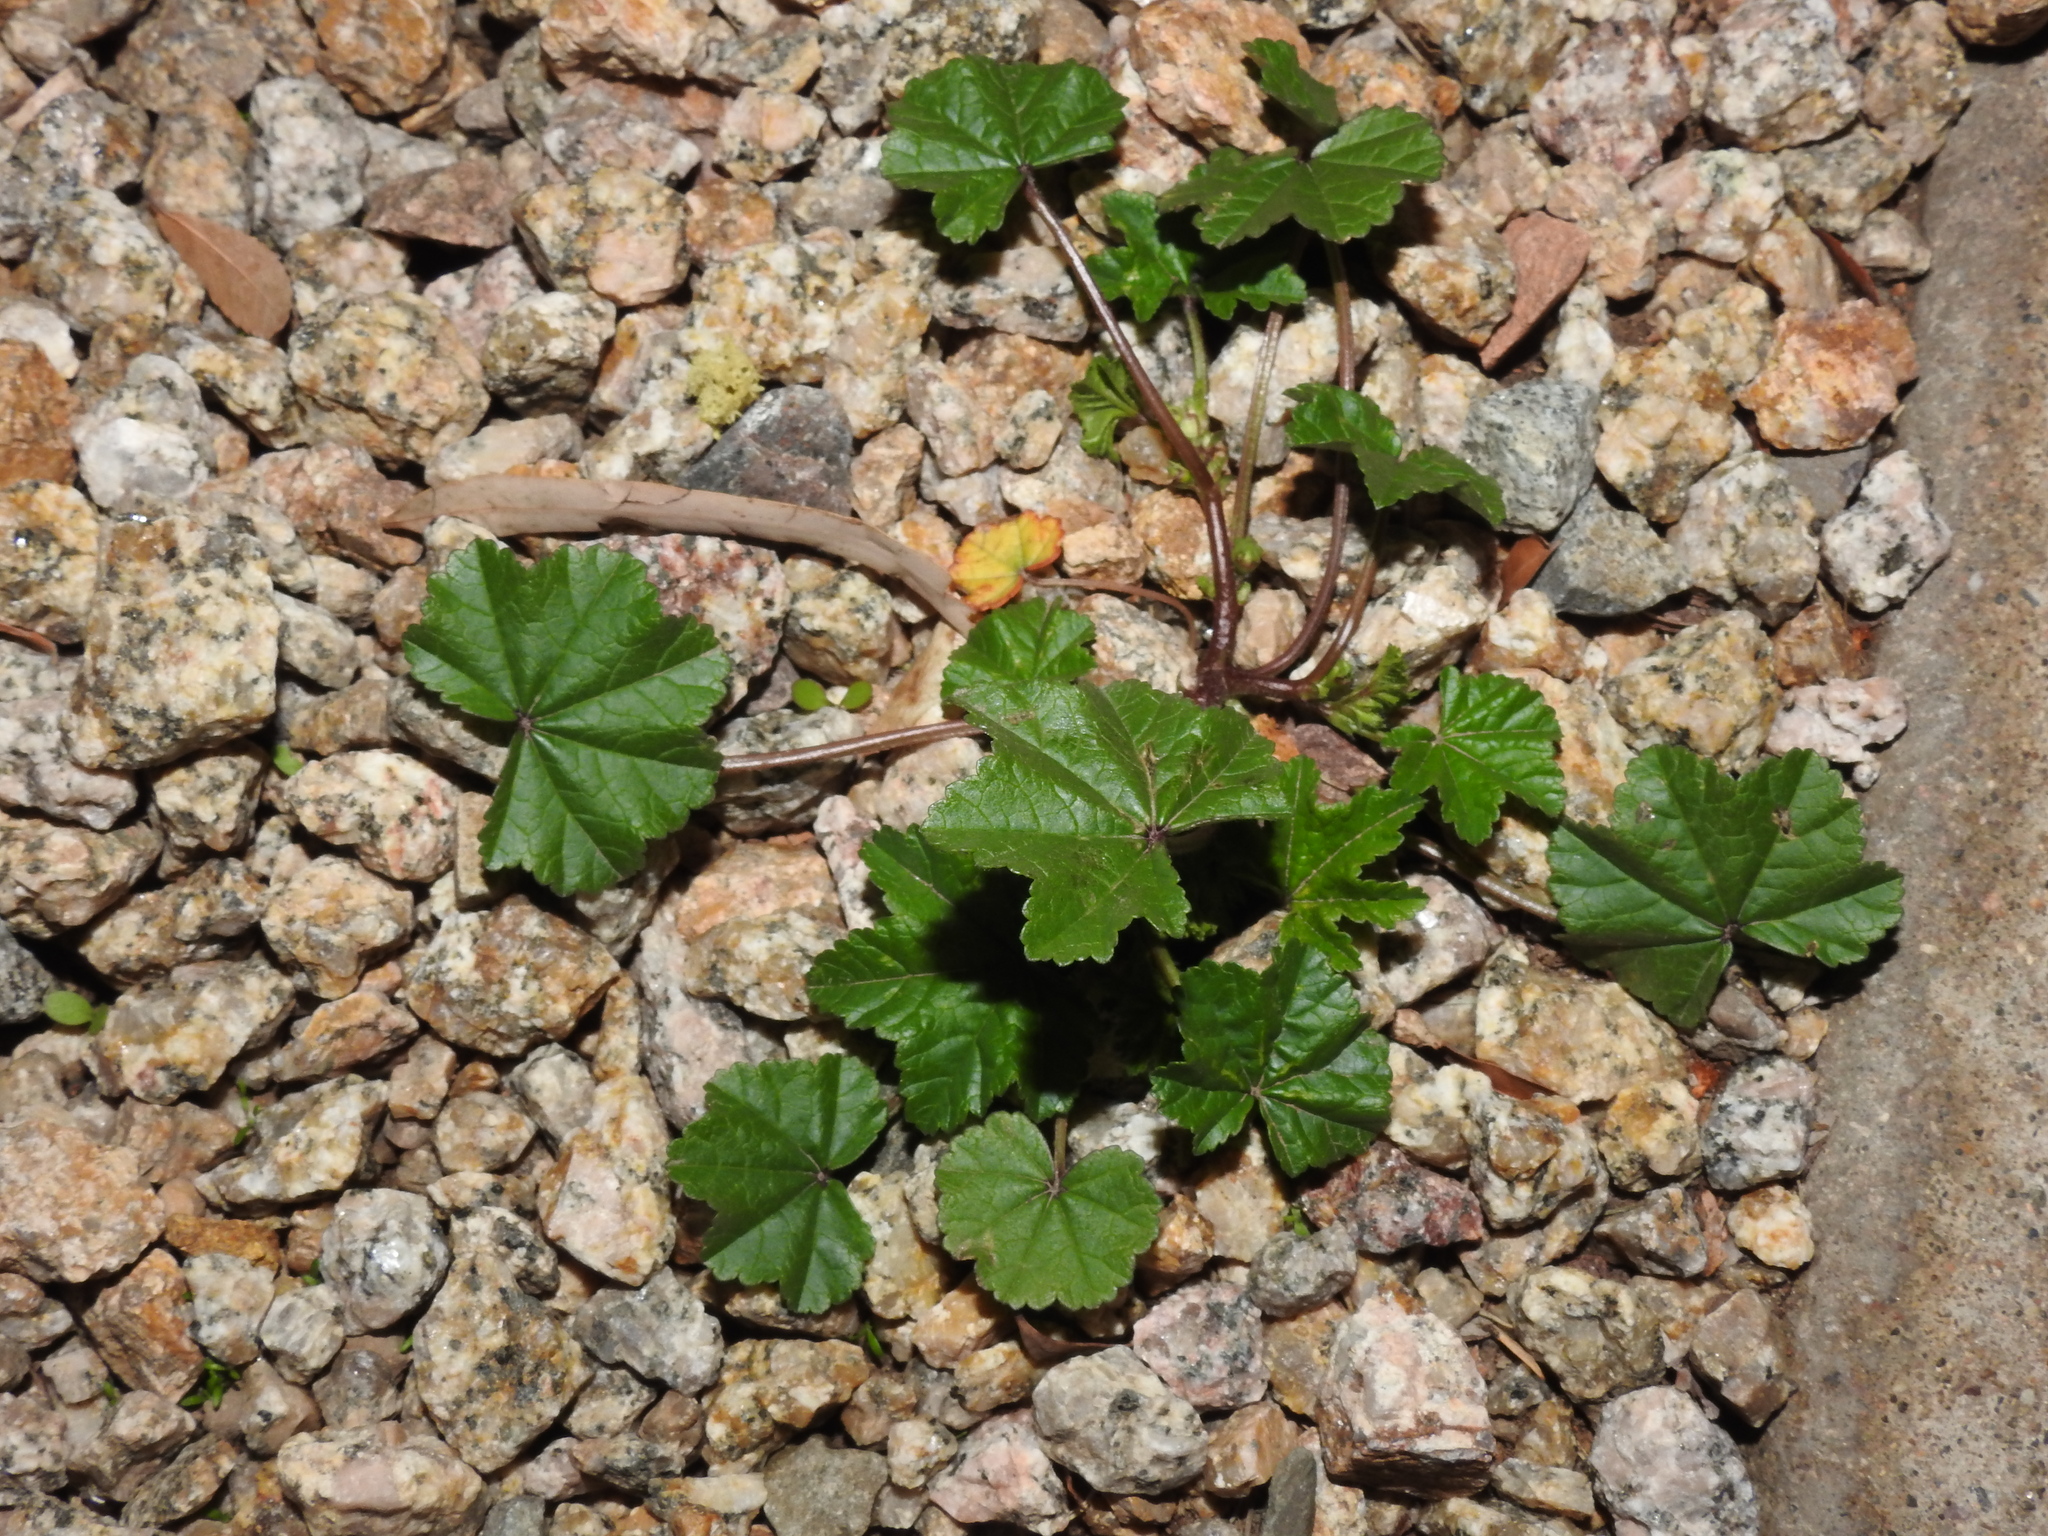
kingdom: Plantae
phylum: Tracheophyta
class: Magnoliopsida
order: Malvales
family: Malvaceae
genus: Malva
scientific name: Malva parviflora
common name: Least mallow
